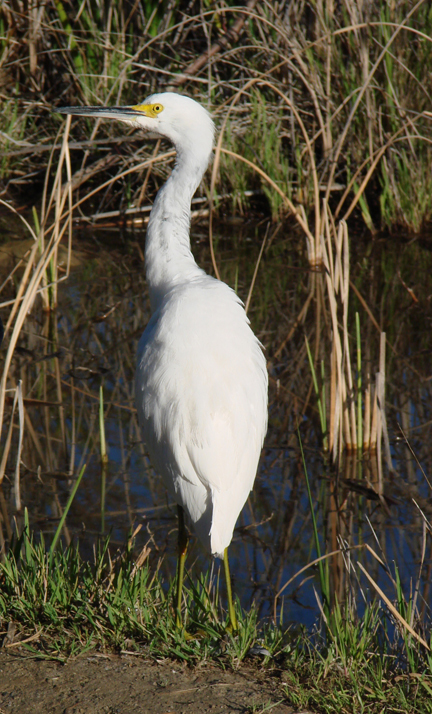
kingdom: Animalia
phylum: Chordata
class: Aves
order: Pelecaniformes
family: Ardeidae
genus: Egretta
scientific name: Egretta thula
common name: Snowy egret
